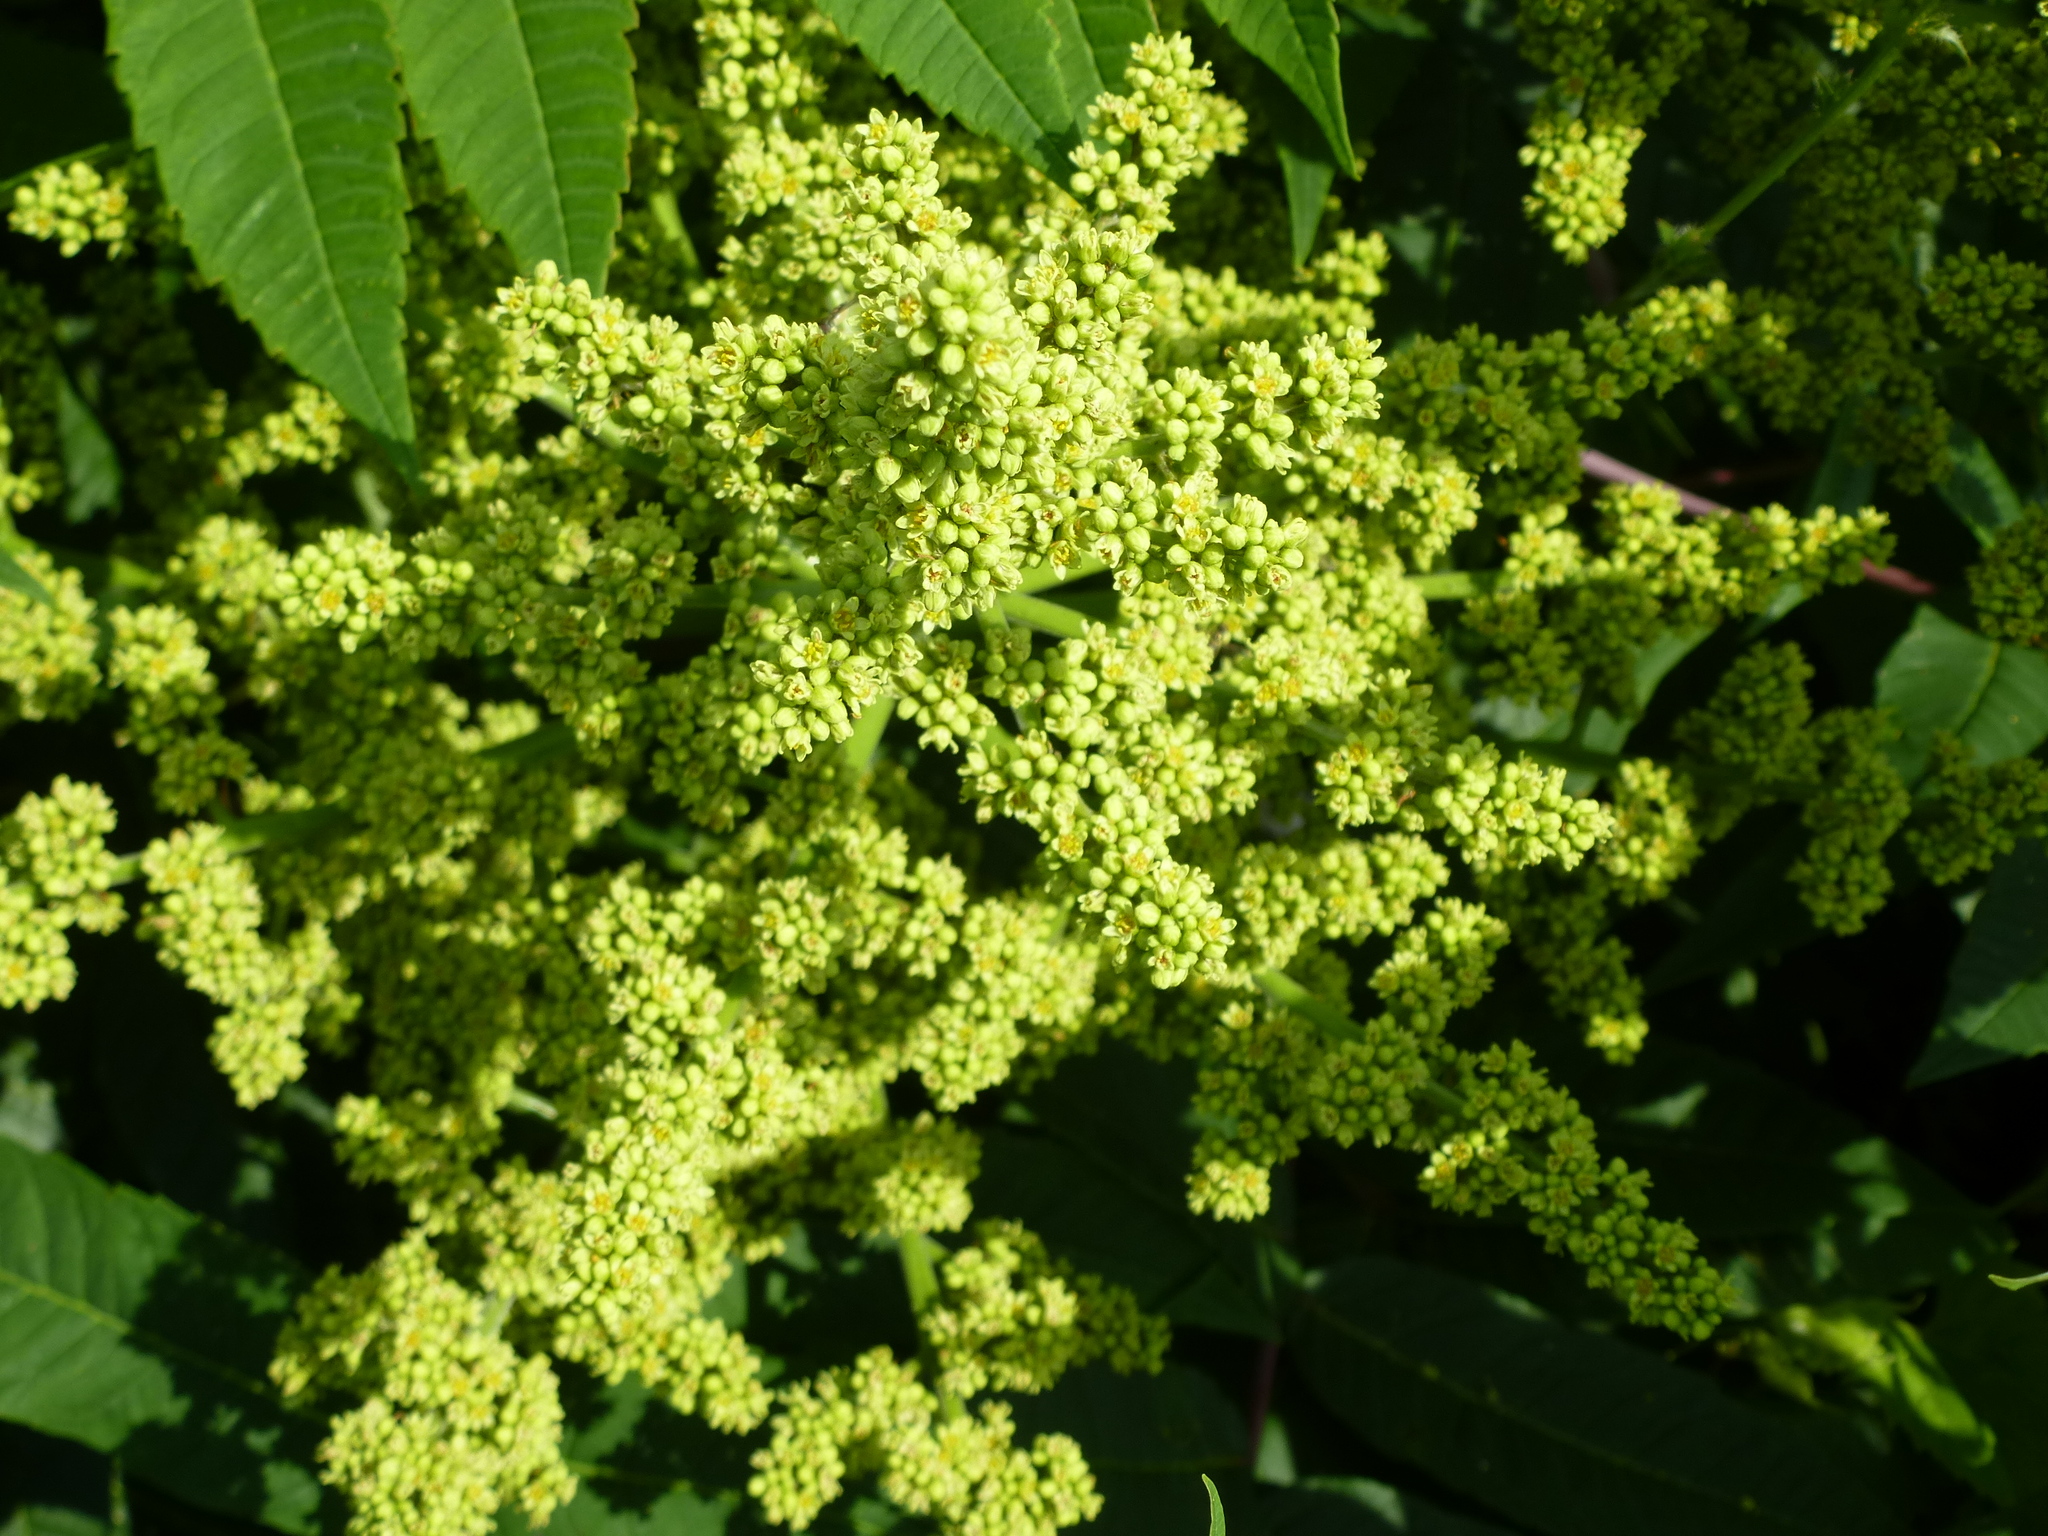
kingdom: Plantae
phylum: Tracheophyta
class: Magnoliopsida
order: Sapindales
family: Anacardiaceae
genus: Rhus
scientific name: Rhus glabra
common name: Scarlet sumac
